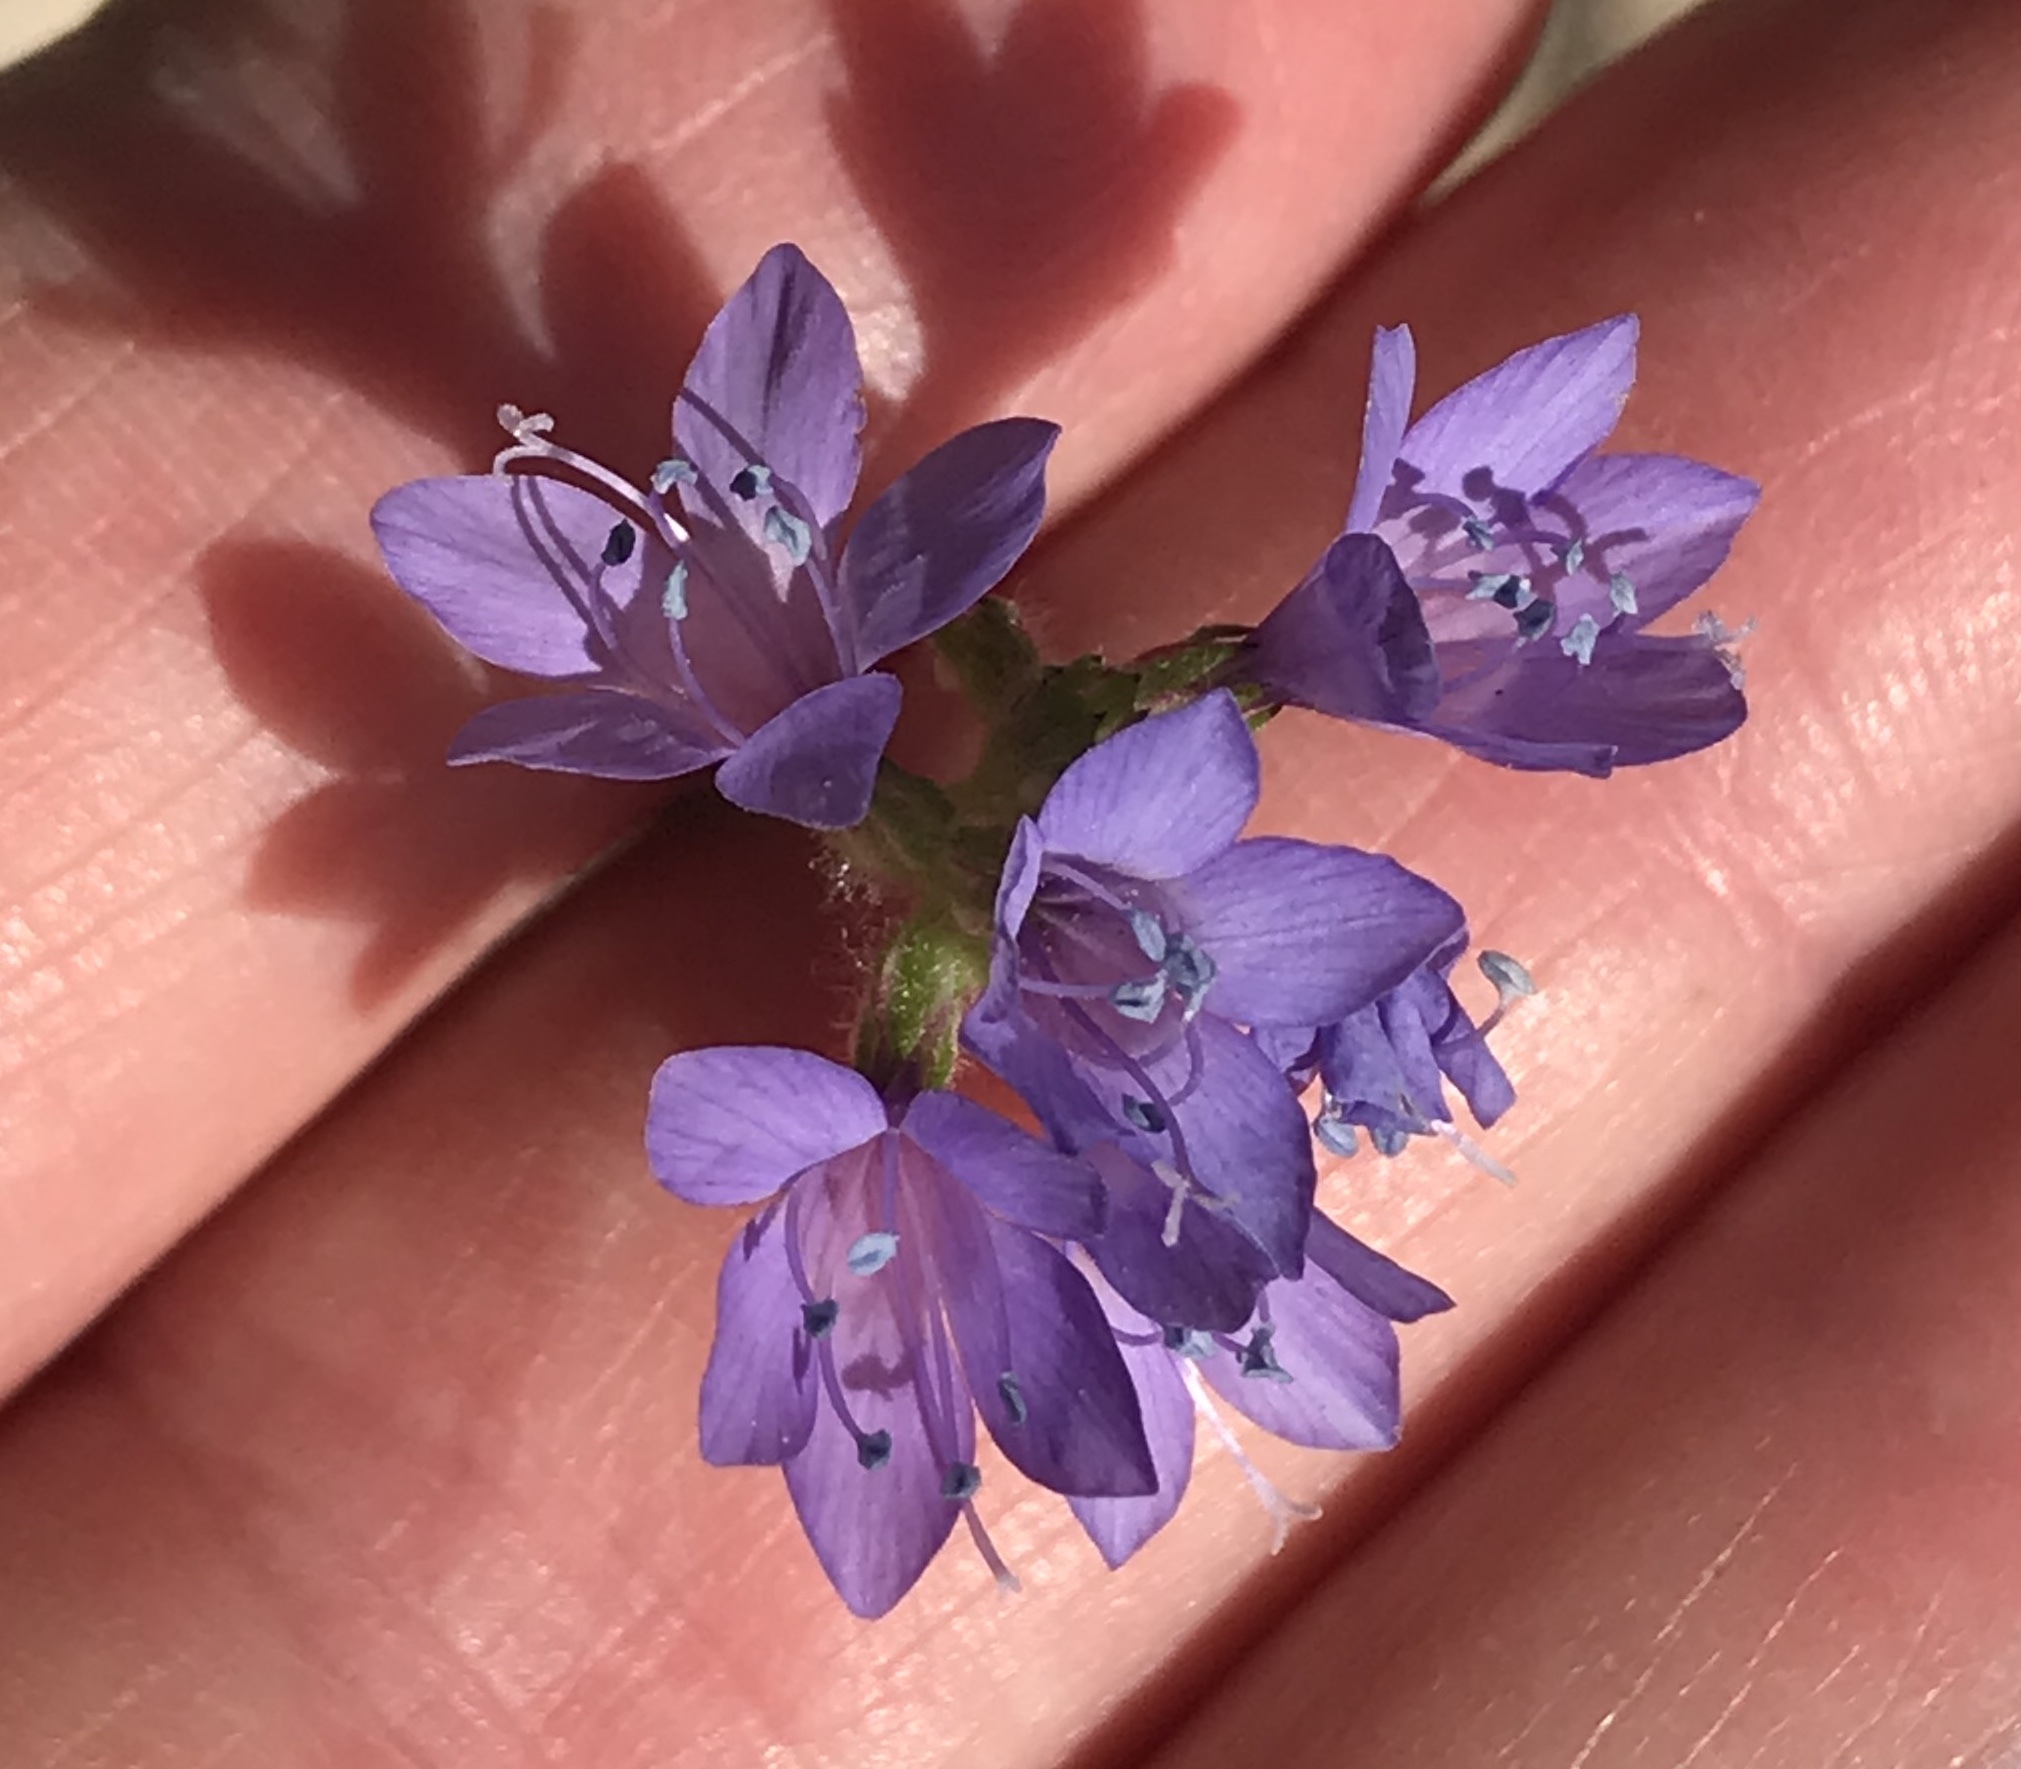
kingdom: Plantae
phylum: Tracheophyta
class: Magnoliopsida
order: Ericales
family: Polemoniaceae
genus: Gilia
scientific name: Gilia achilleifolia
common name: California gily-flower
